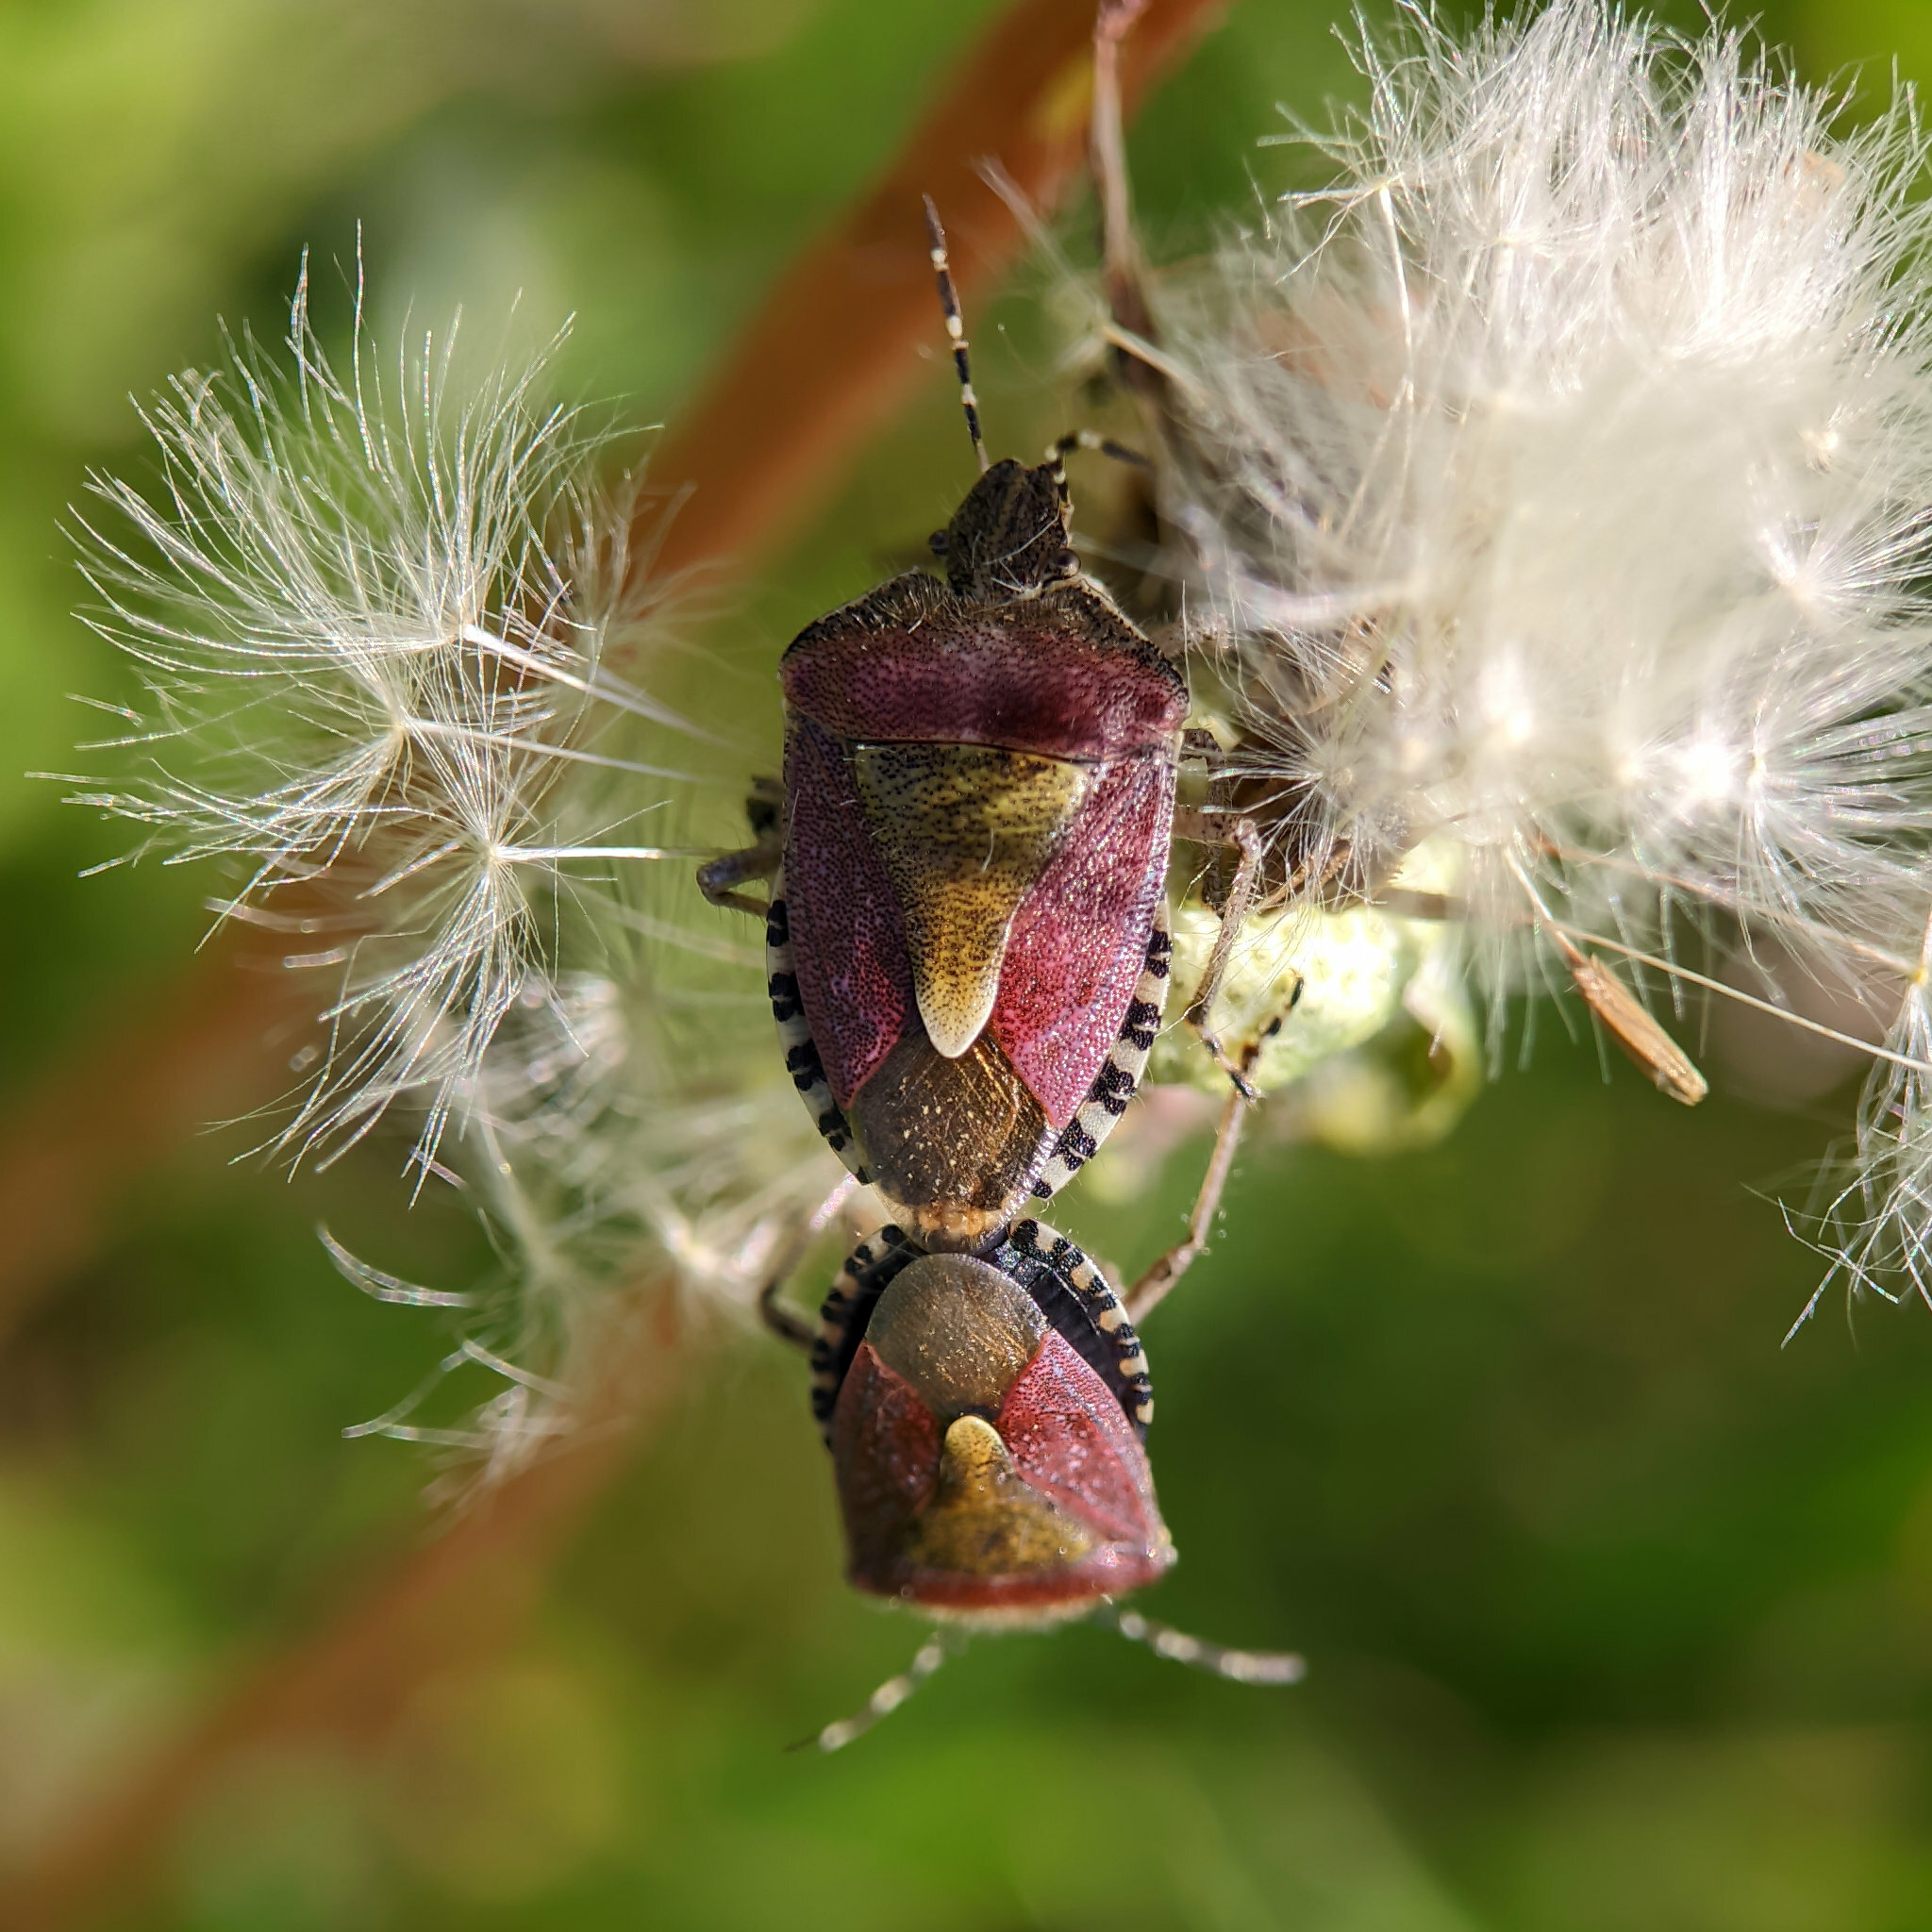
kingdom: Animalia
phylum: Arthropoda
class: Insecta
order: Hemiptera
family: Pentatomidae
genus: Dolycoris
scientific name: Dolycoris baccarum
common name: Sloe bug
